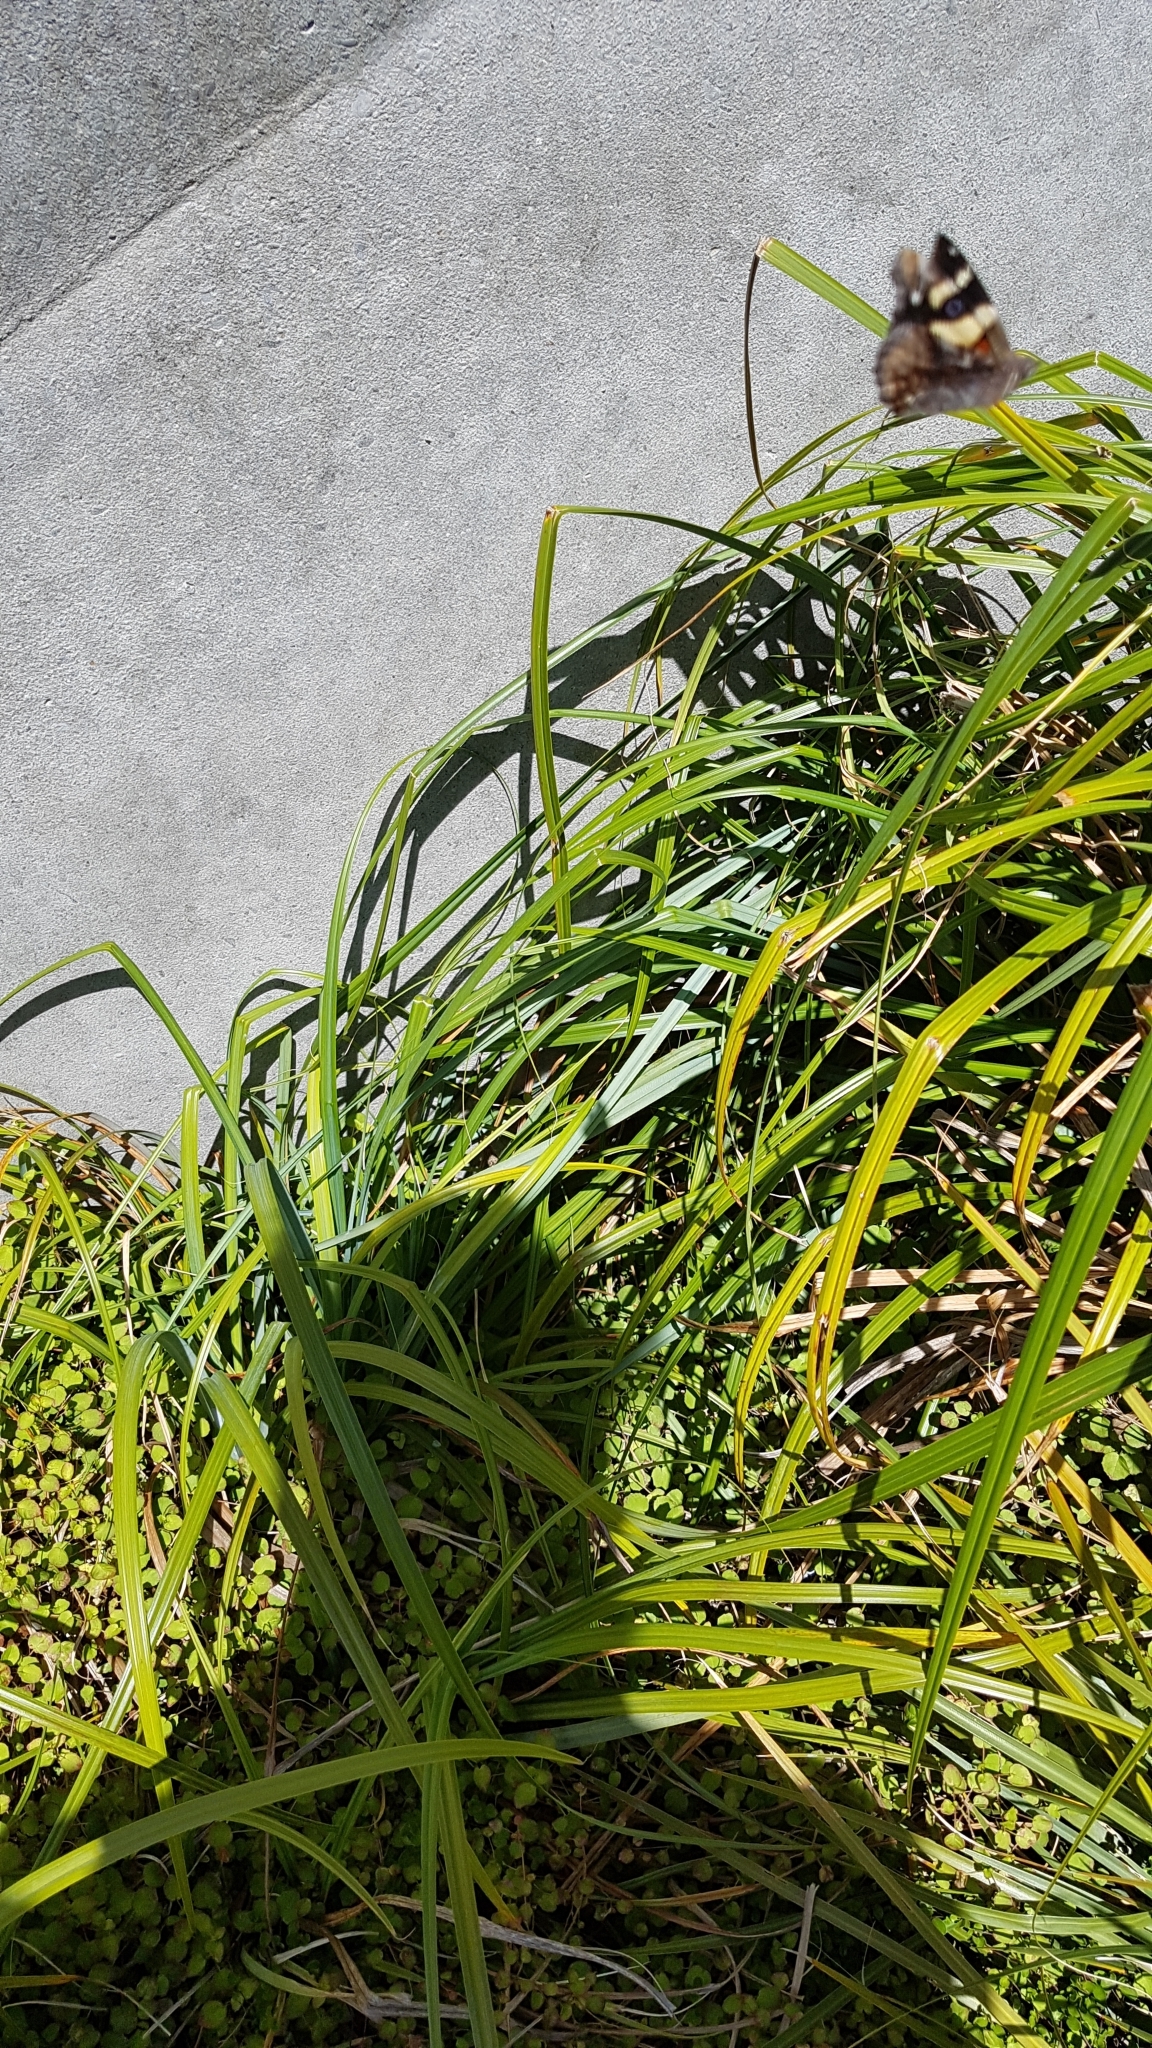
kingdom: Animalia
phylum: Arthropoda
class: Insecta
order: Lepidoptera
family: Nymphalidae
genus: Vanessa
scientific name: Vanessa itea
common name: Yellow admiral
